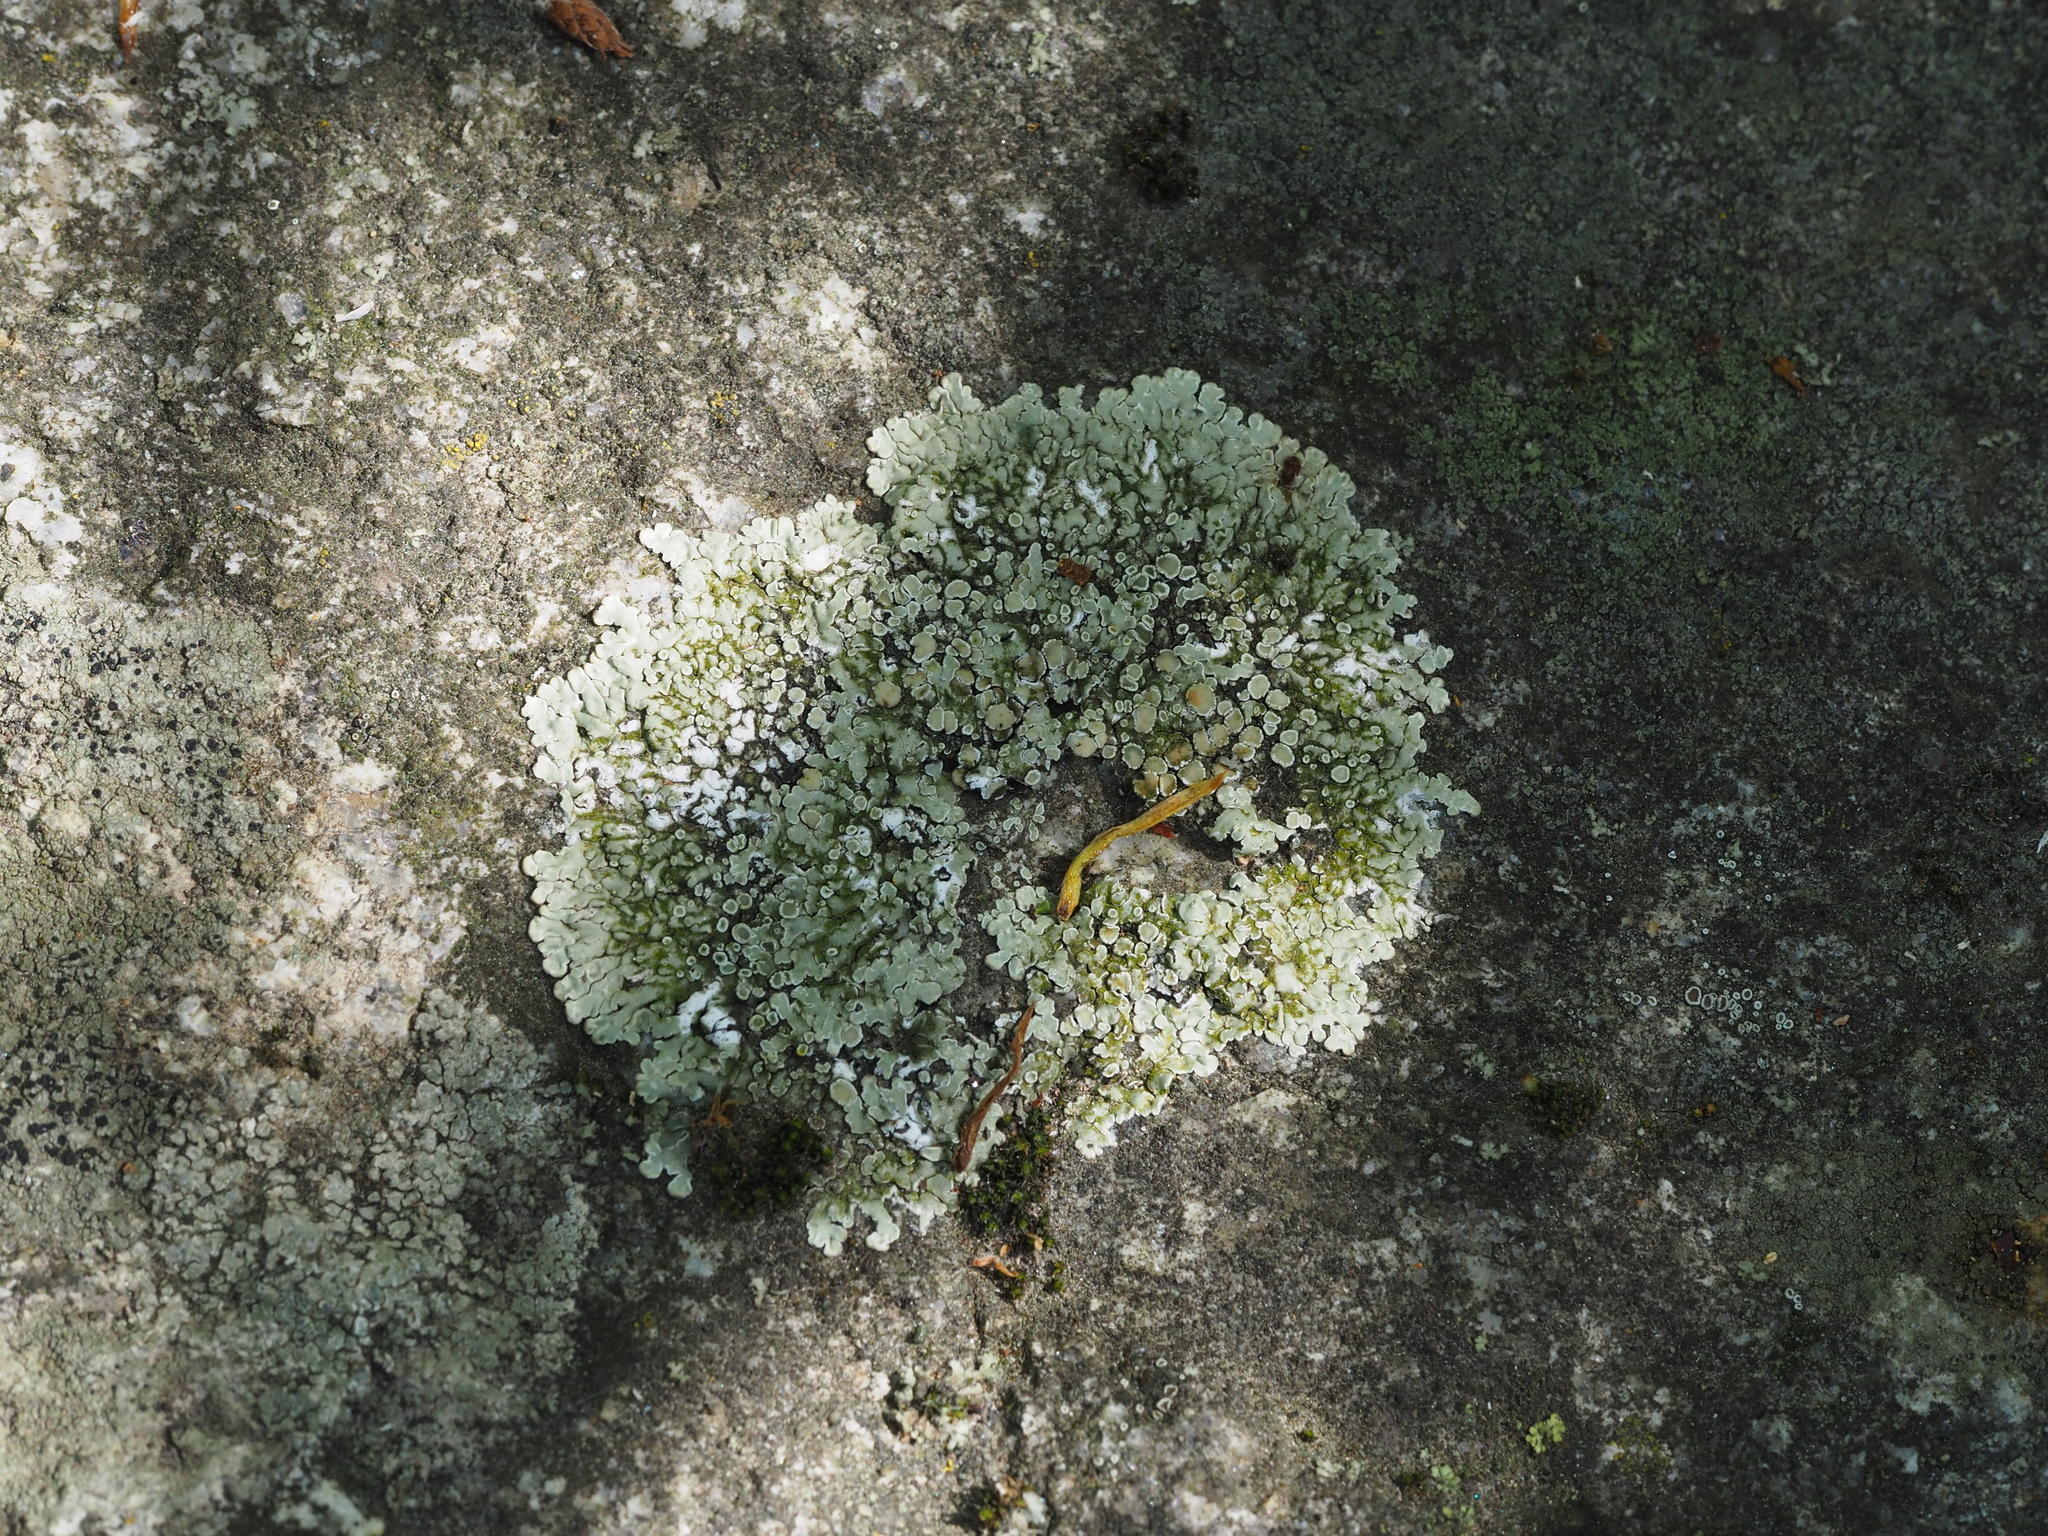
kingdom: Fungi
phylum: Ascomycota
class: Lecanoromycetes
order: Lecanorales
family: Lecanoraceae
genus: Protoparmeliopsis
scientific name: Protoparmeliopsis muralis
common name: Stonewall rim lichen
